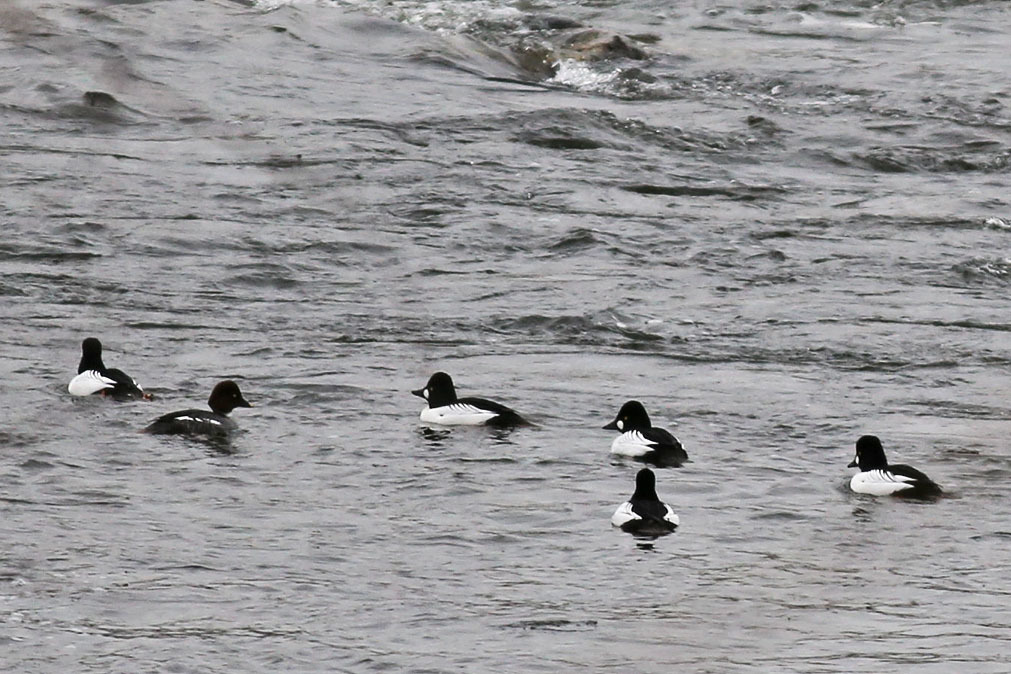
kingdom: Animalia
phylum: Chordata
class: Aves
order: Anseriformes
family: Anatidae
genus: Bucephala
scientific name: Bucephala clangula
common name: Common goldeneye
